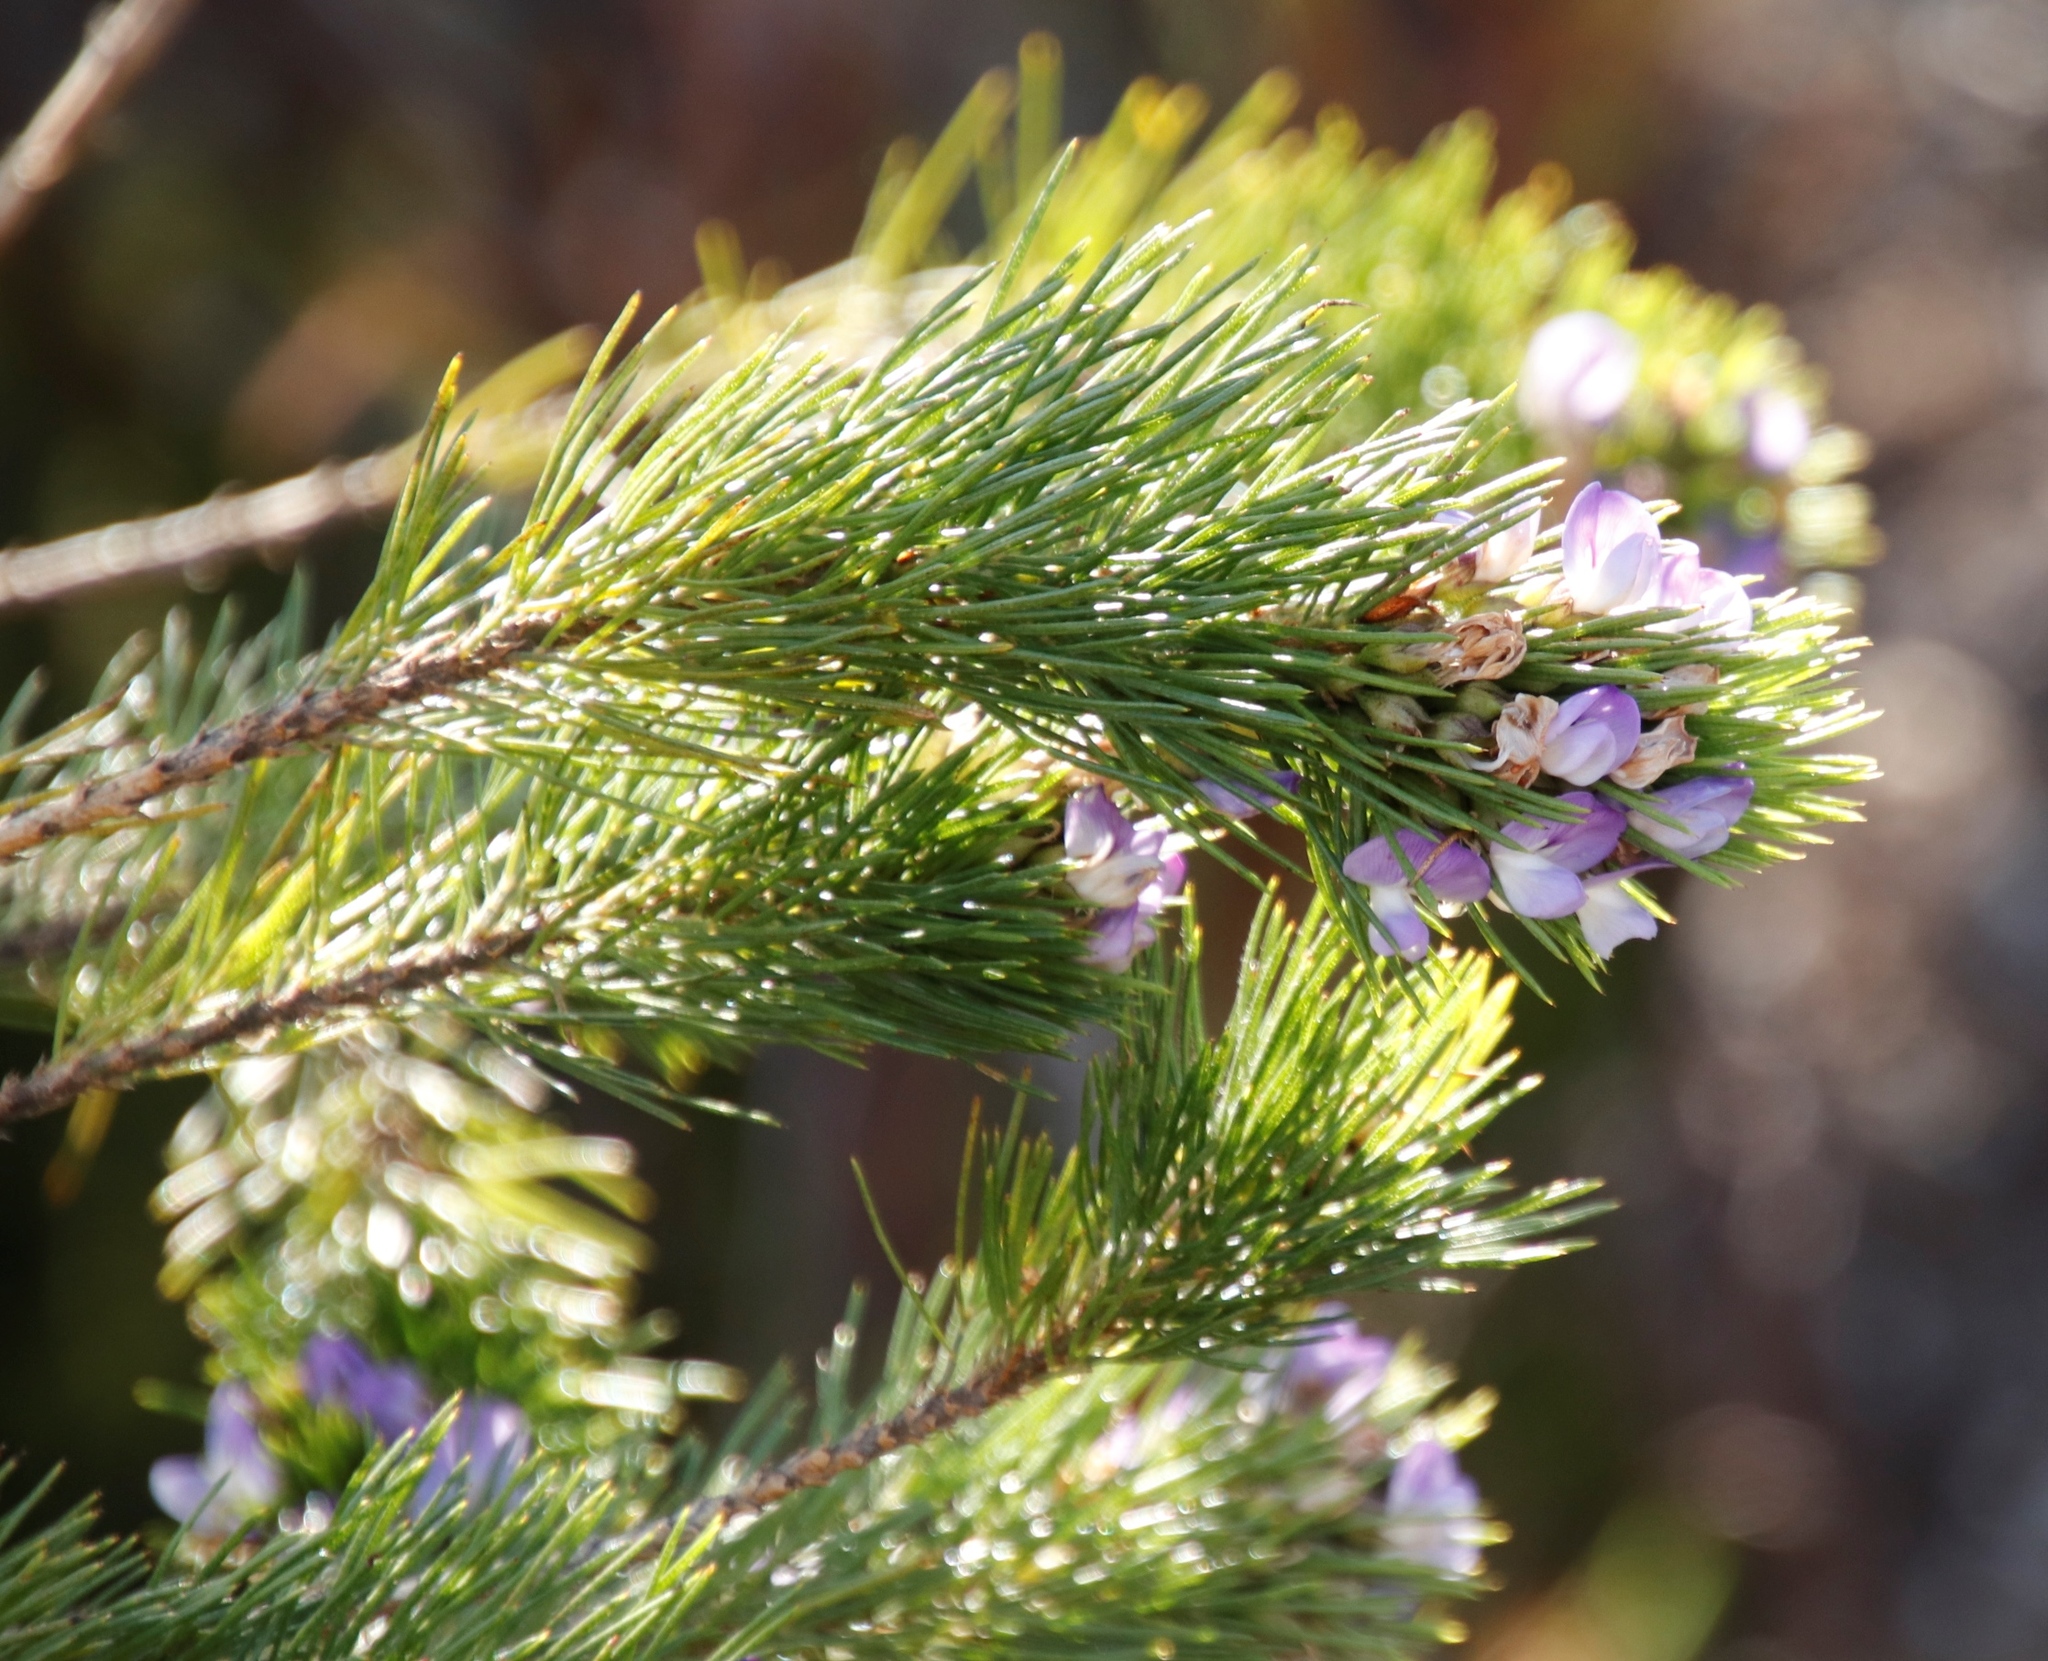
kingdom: Plantae
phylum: Tracheophyta
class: Magnoliopsida
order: Fabales
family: Fabaceae
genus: Psoralea
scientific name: Psoralea pinnata
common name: African scurfpea
